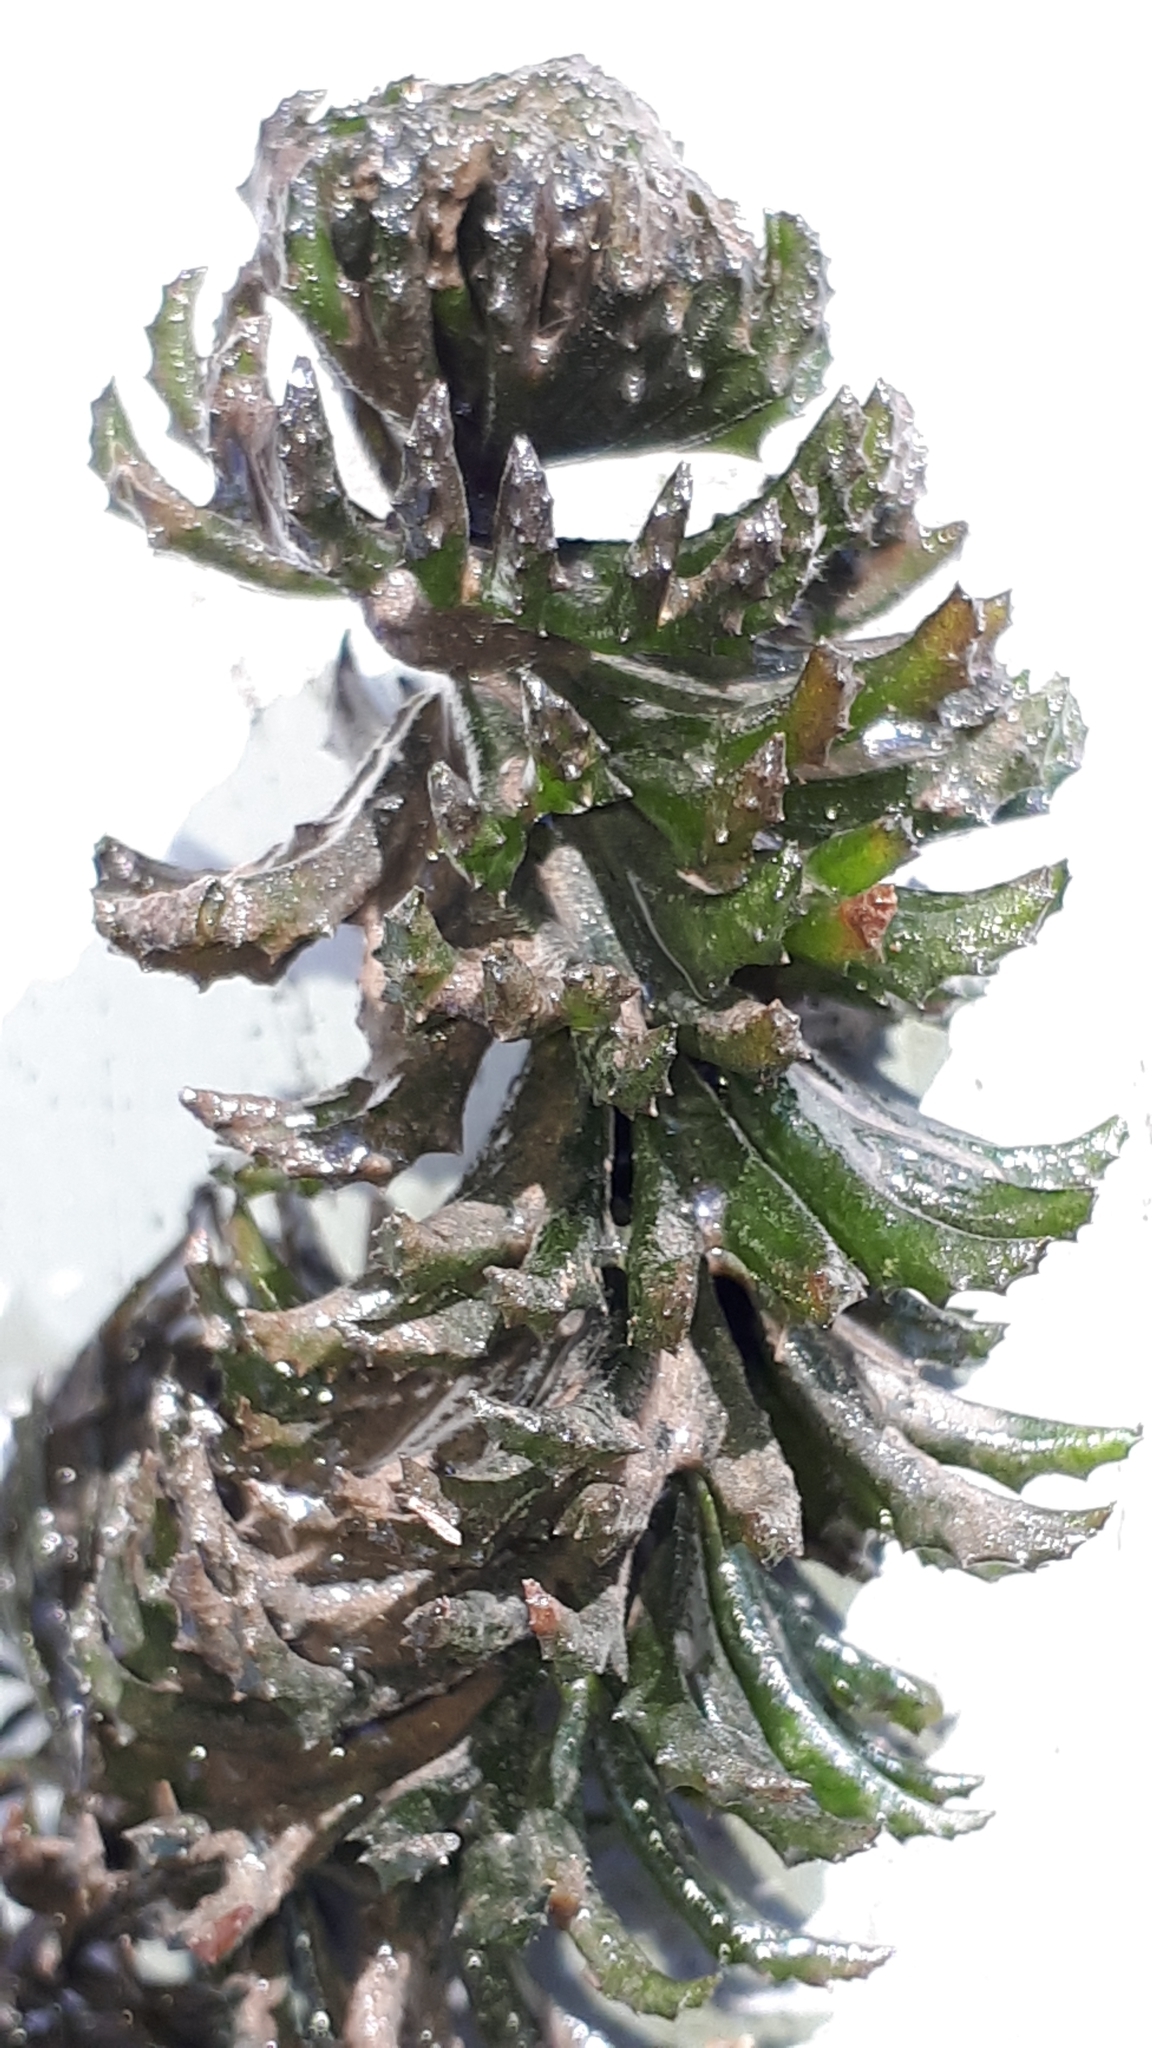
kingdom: Plantae
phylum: Tracheophyta
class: Magnoliopsida
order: Ceratophyllales
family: Ceratophyllaceae
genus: Ceratophyllum
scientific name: Ceratophyllum demersum
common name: Rigid hornwort
